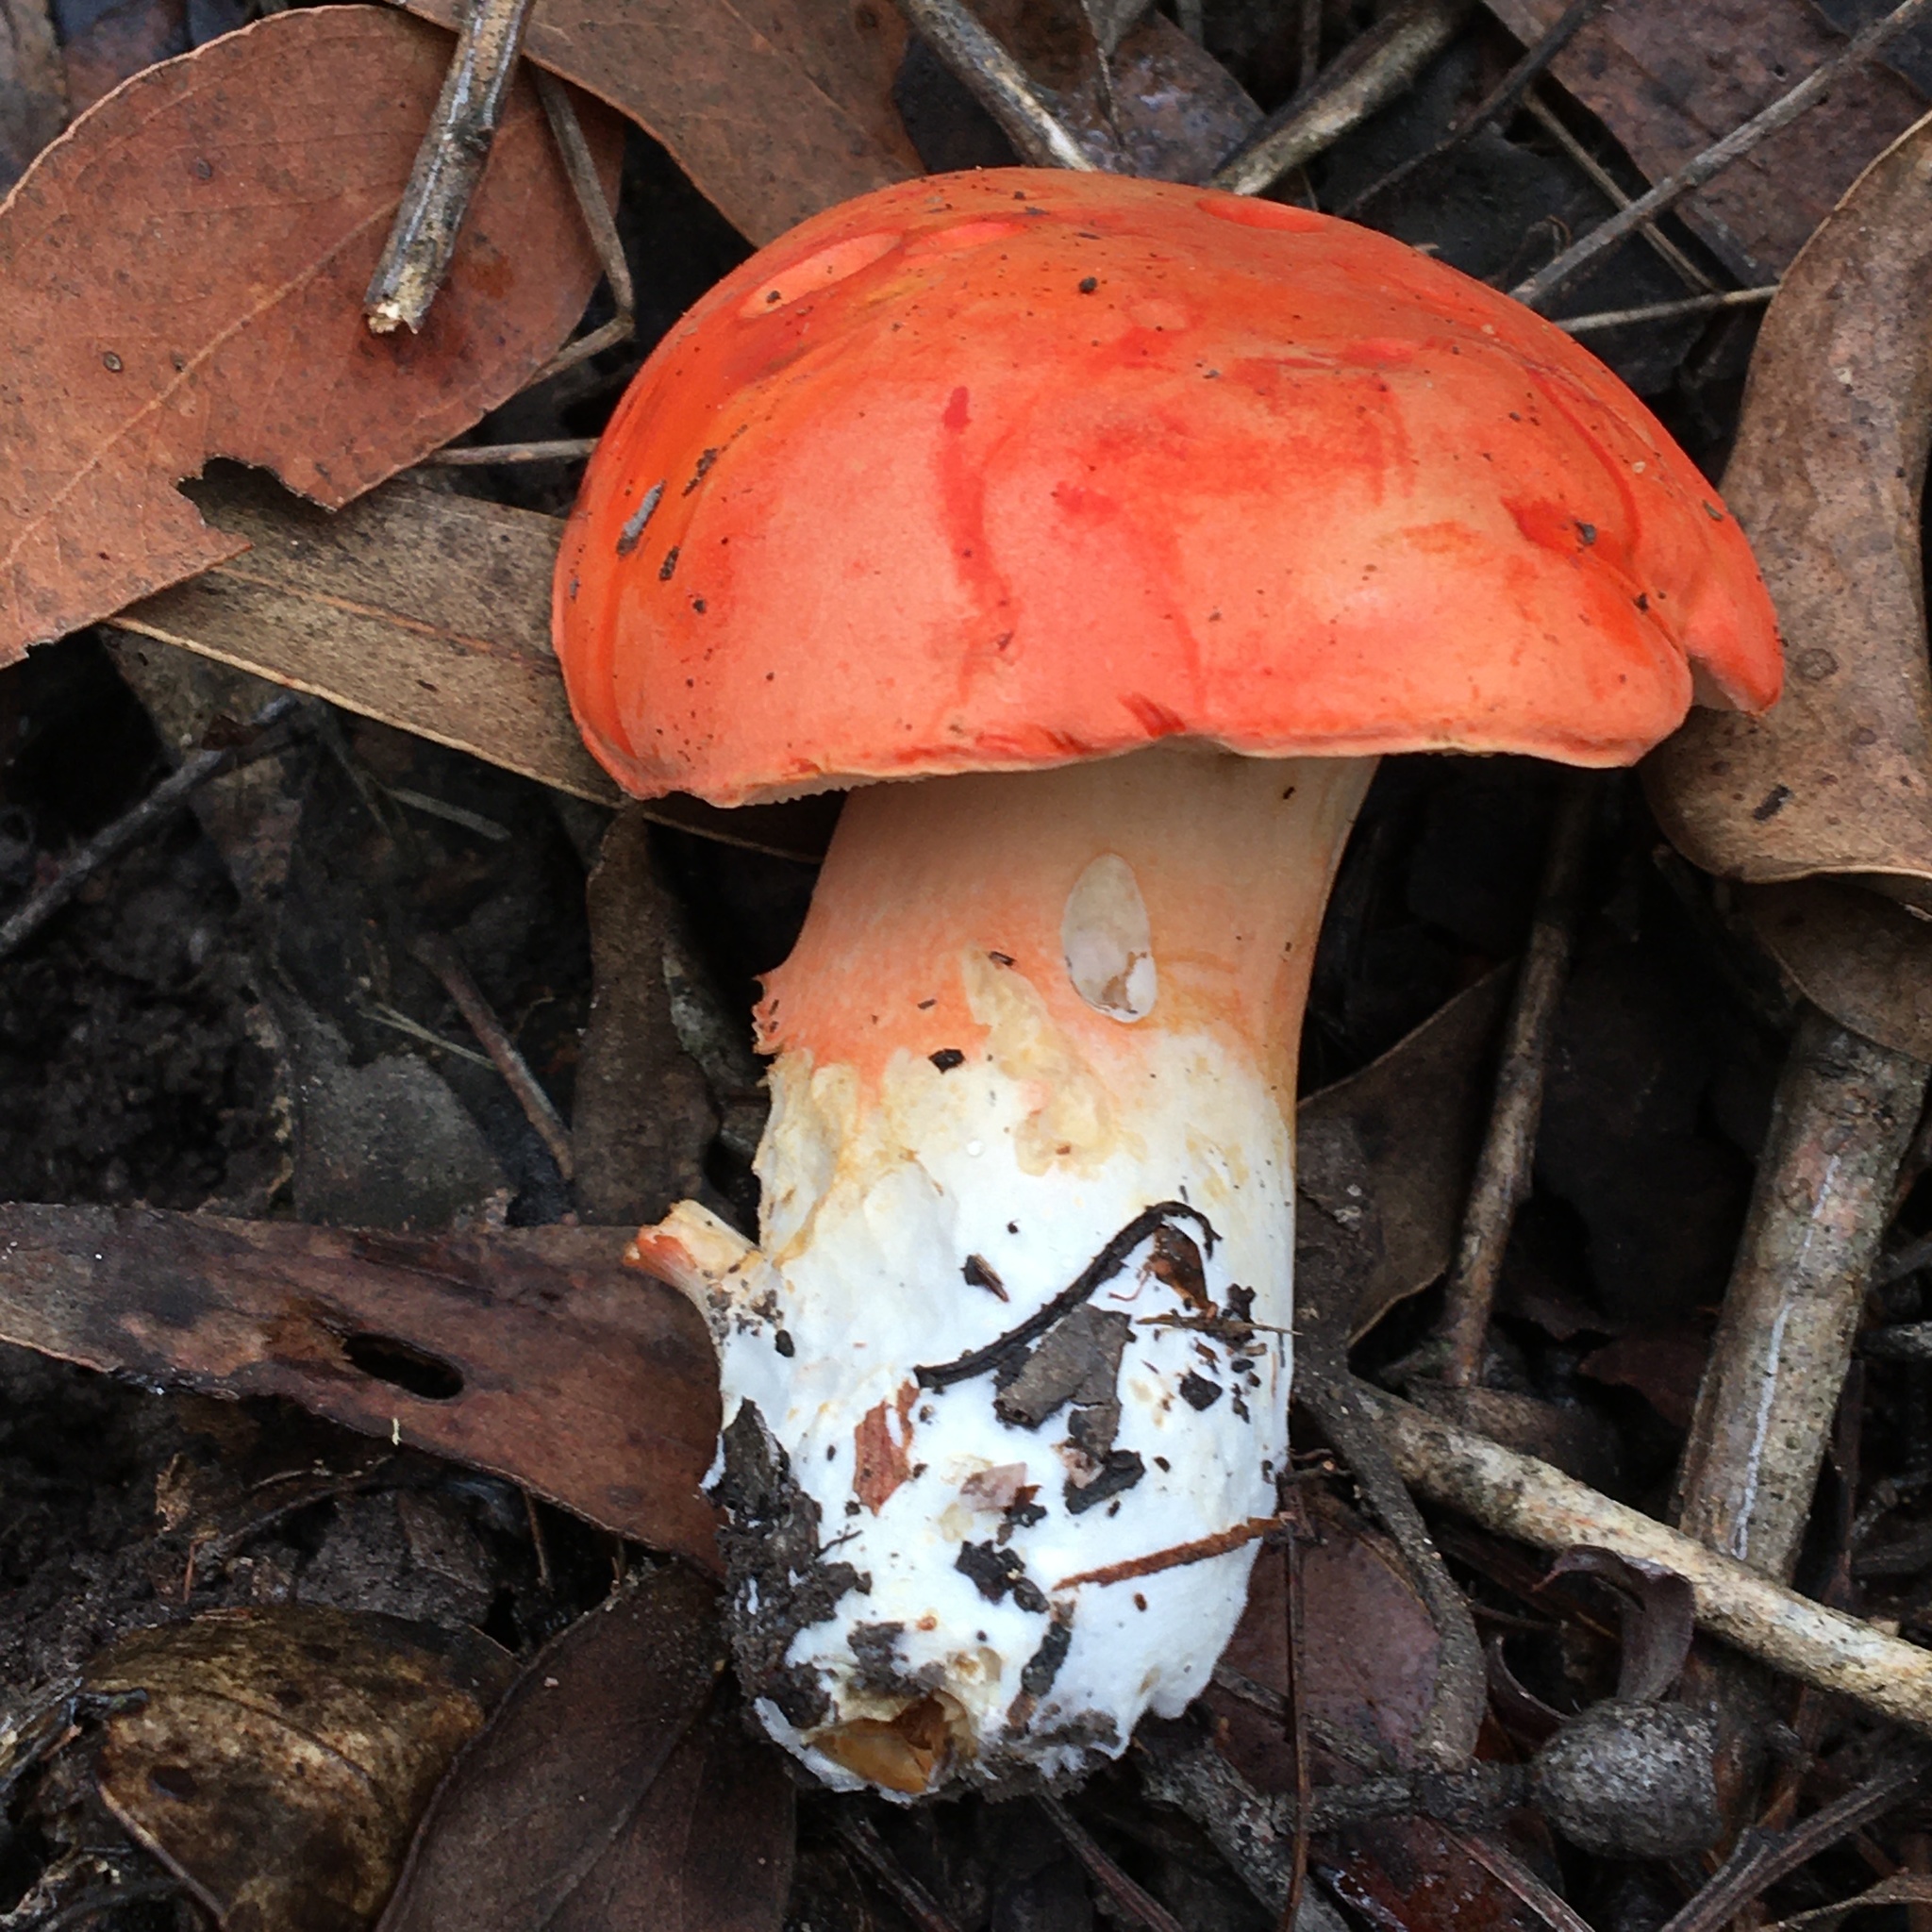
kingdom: Fungi
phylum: Basidiomycota
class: Agaricomycetes
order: Boletales
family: Boletaceae
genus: Tylopilus
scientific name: Tylopilus balloui
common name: Burnt-orange bolete
